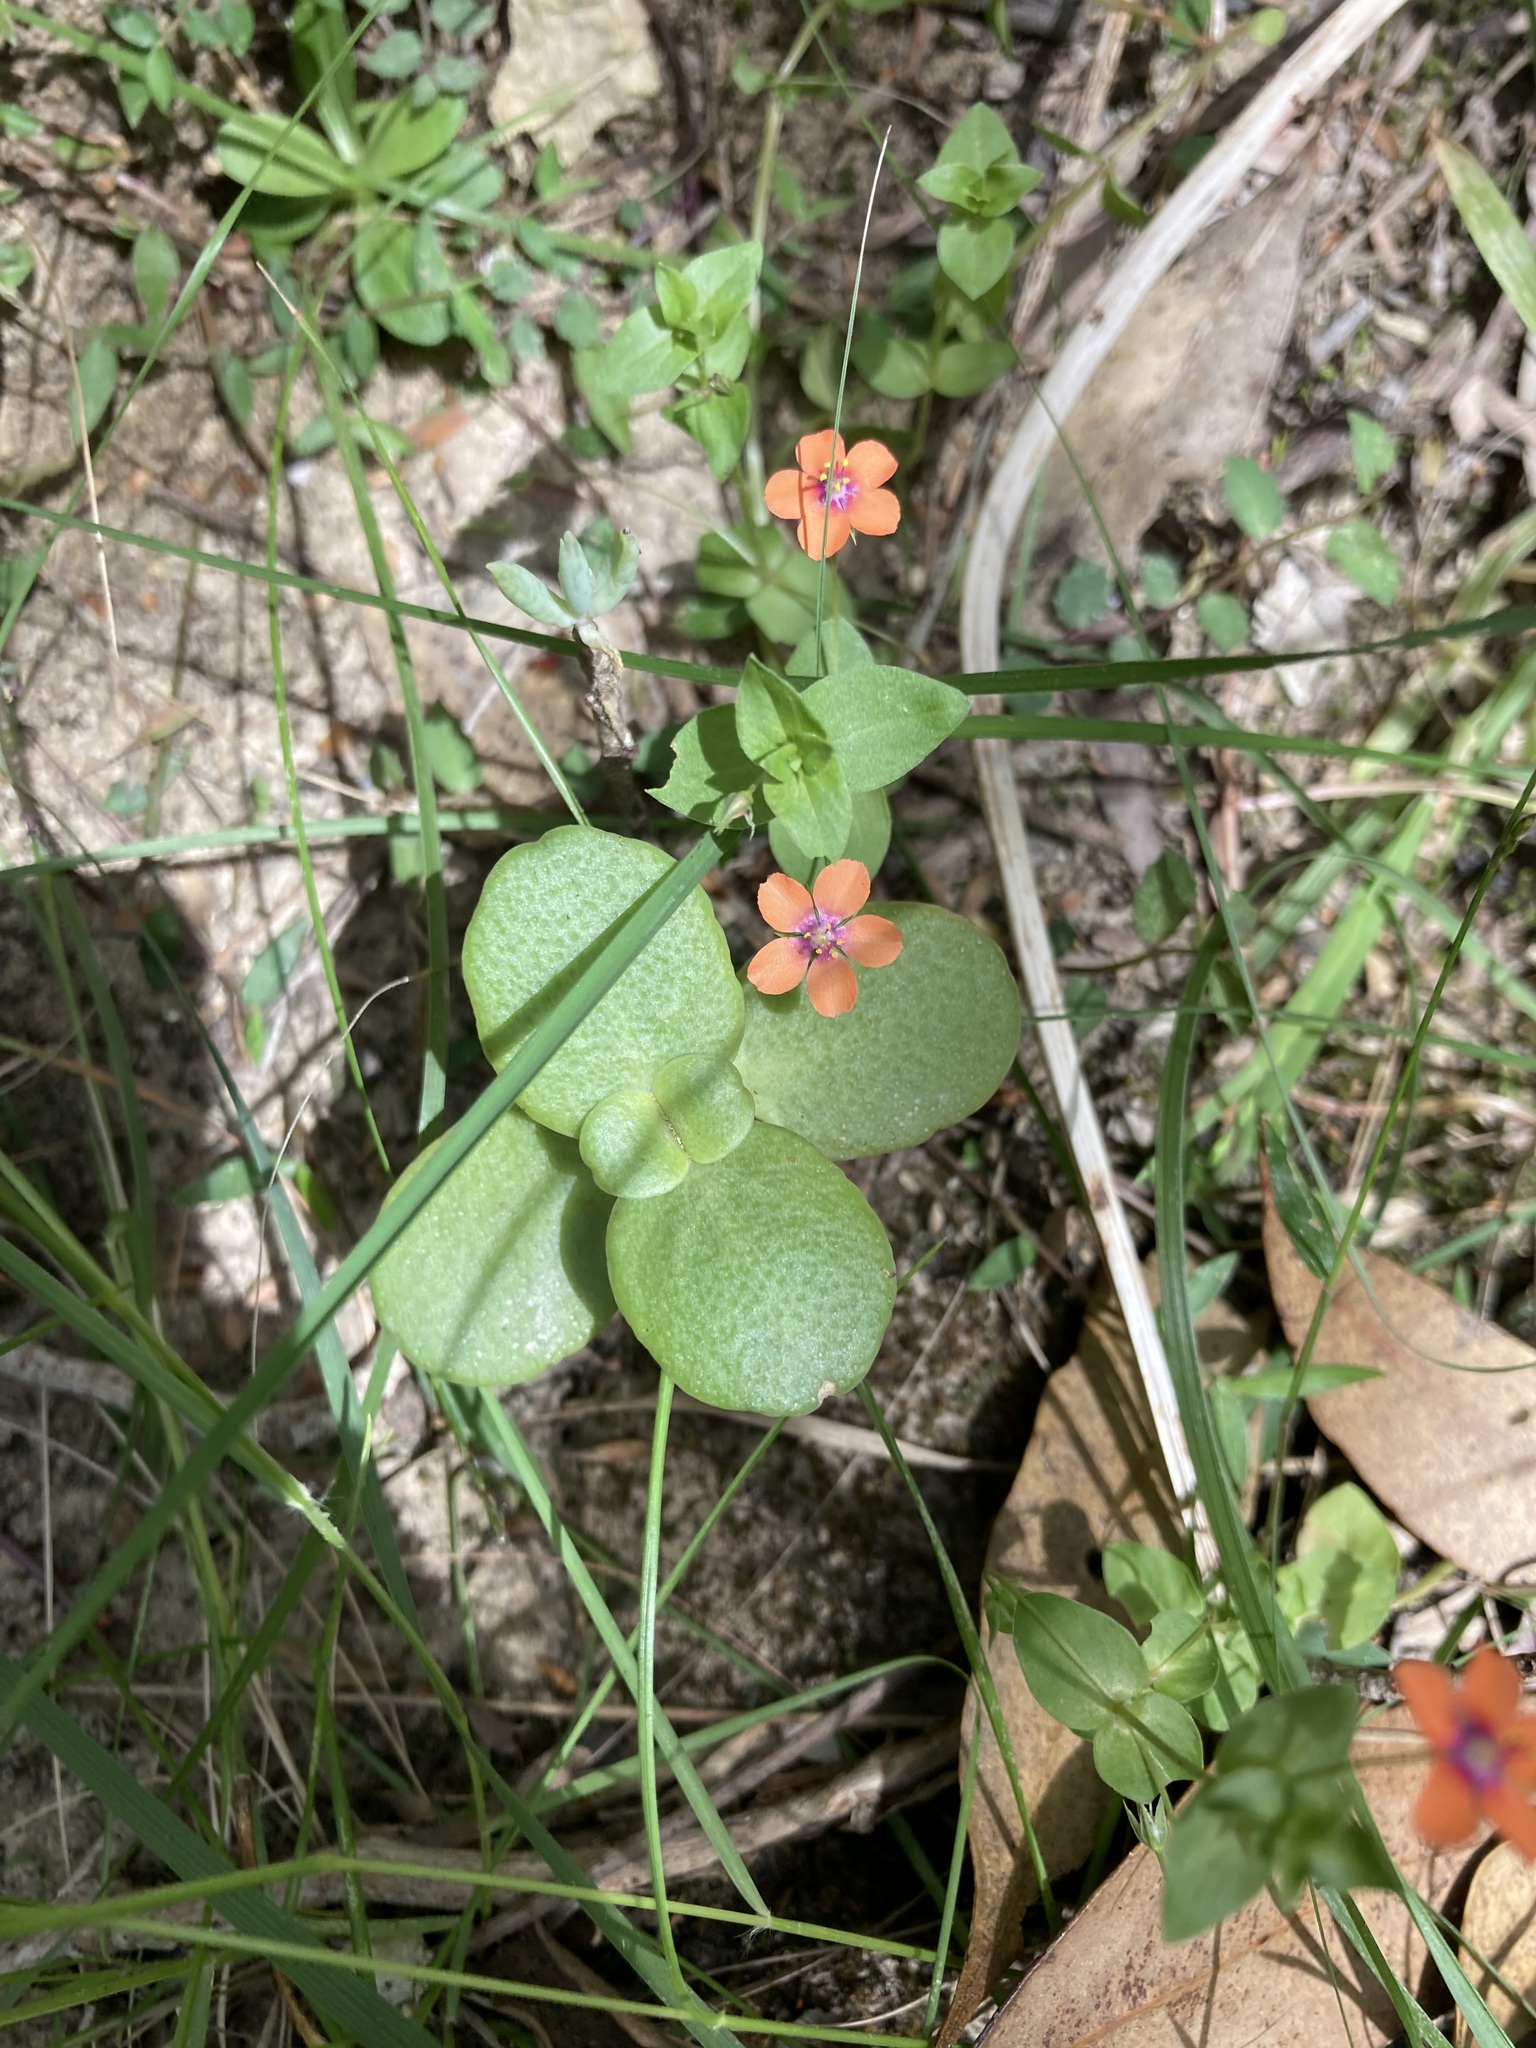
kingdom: Plantae
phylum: Tracheophyta
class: Magnoliopsida
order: Saxifragales
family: Crassulaceae
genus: Crassula
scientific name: Crassula multicava
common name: Cape province pygmyweed
